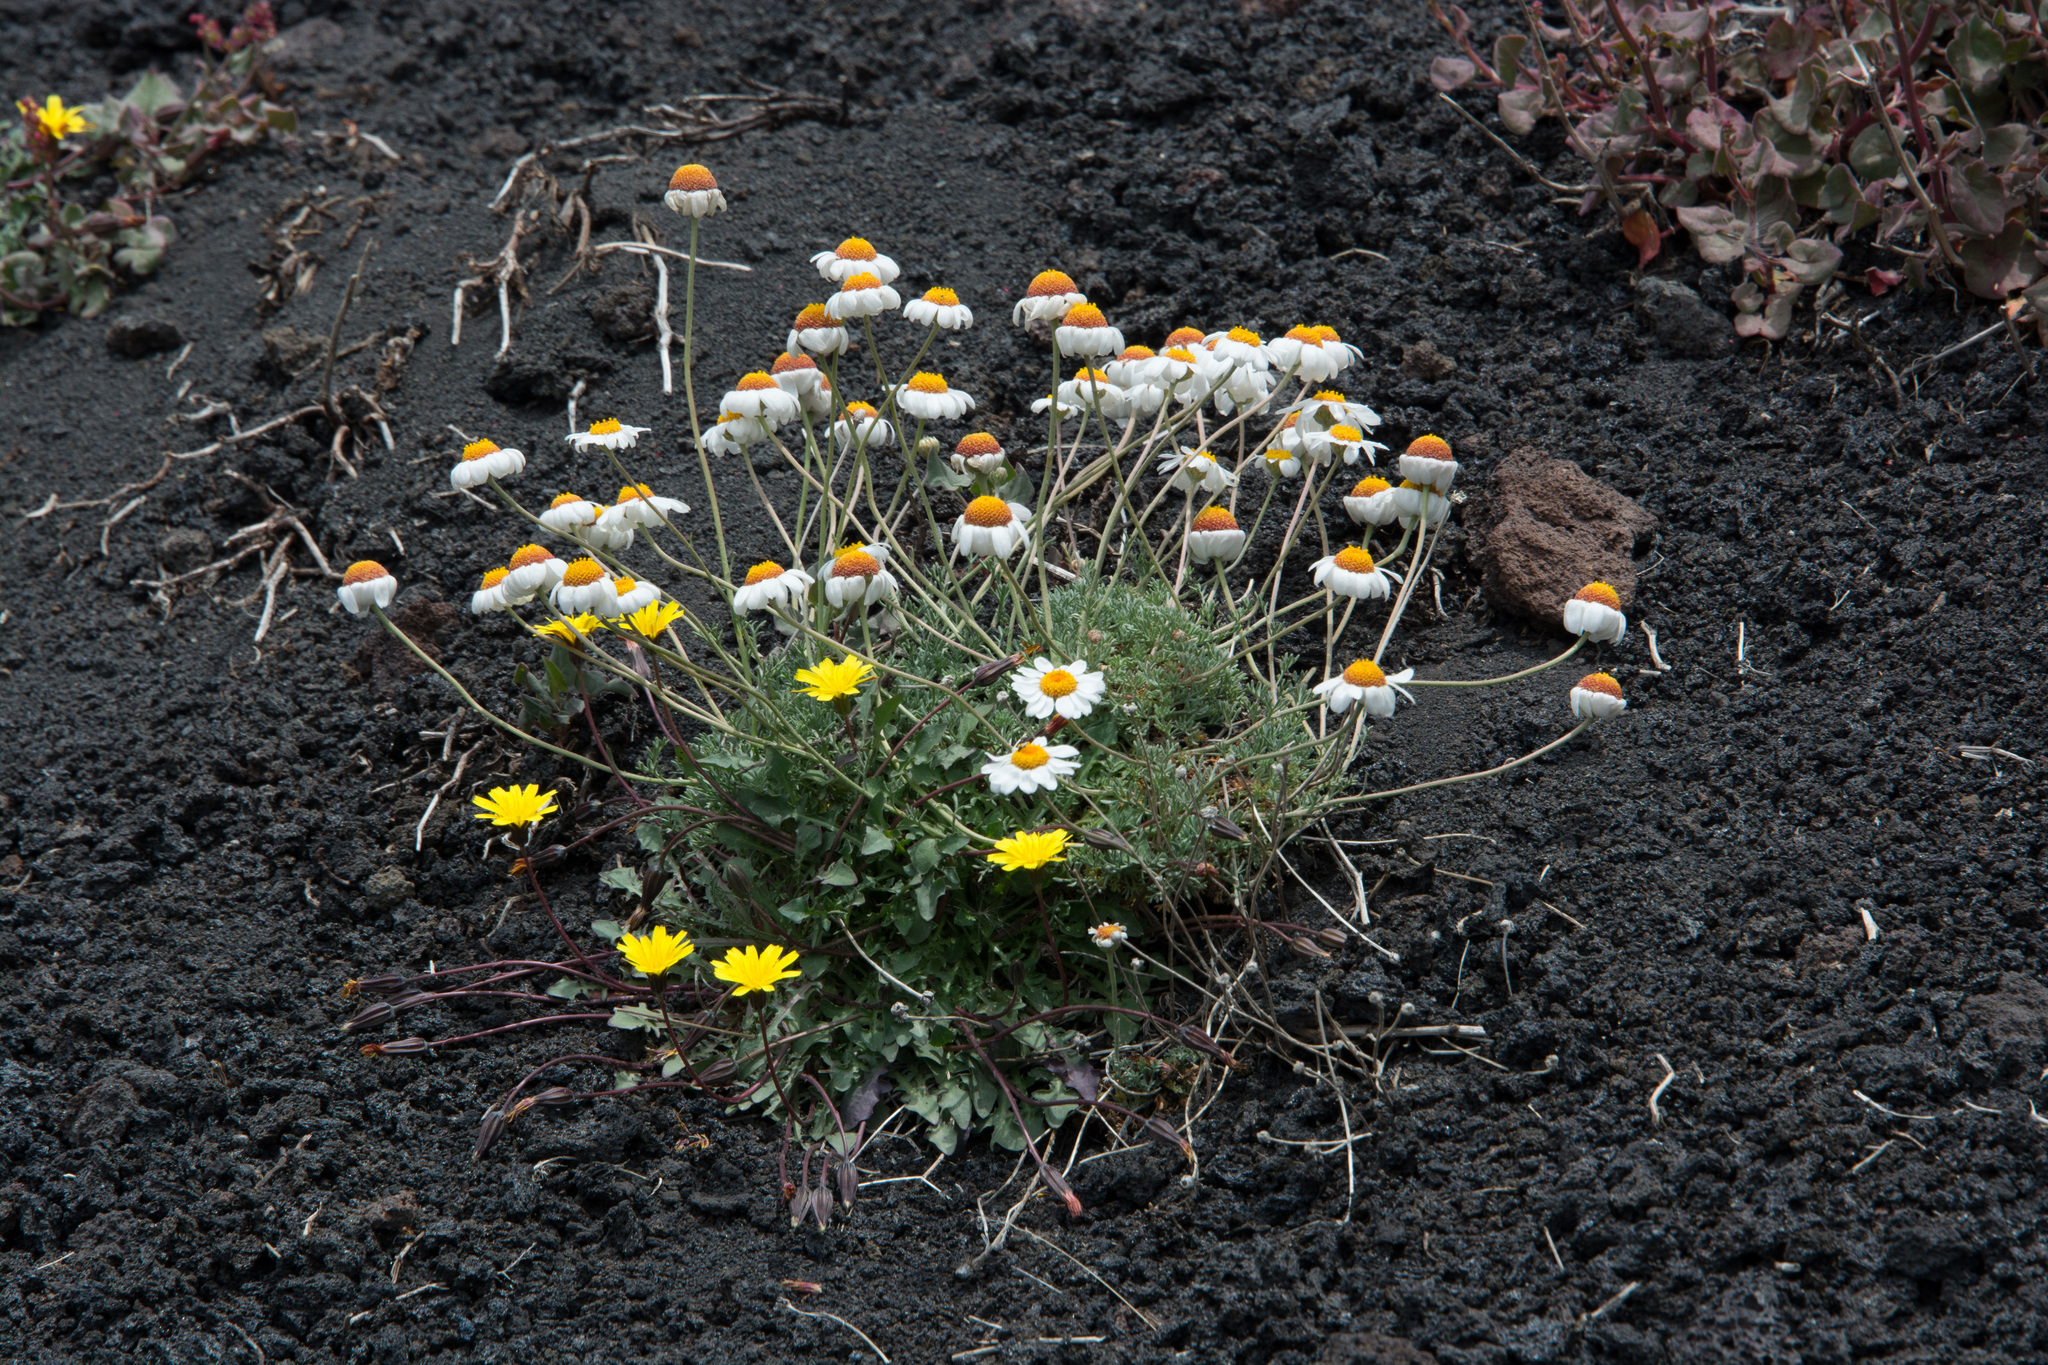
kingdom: Plantae
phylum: Tracheophyta
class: Magnoliopsida
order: Asterales
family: Asteraceae
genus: Anthemis
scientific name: Anthemis aetnensis
